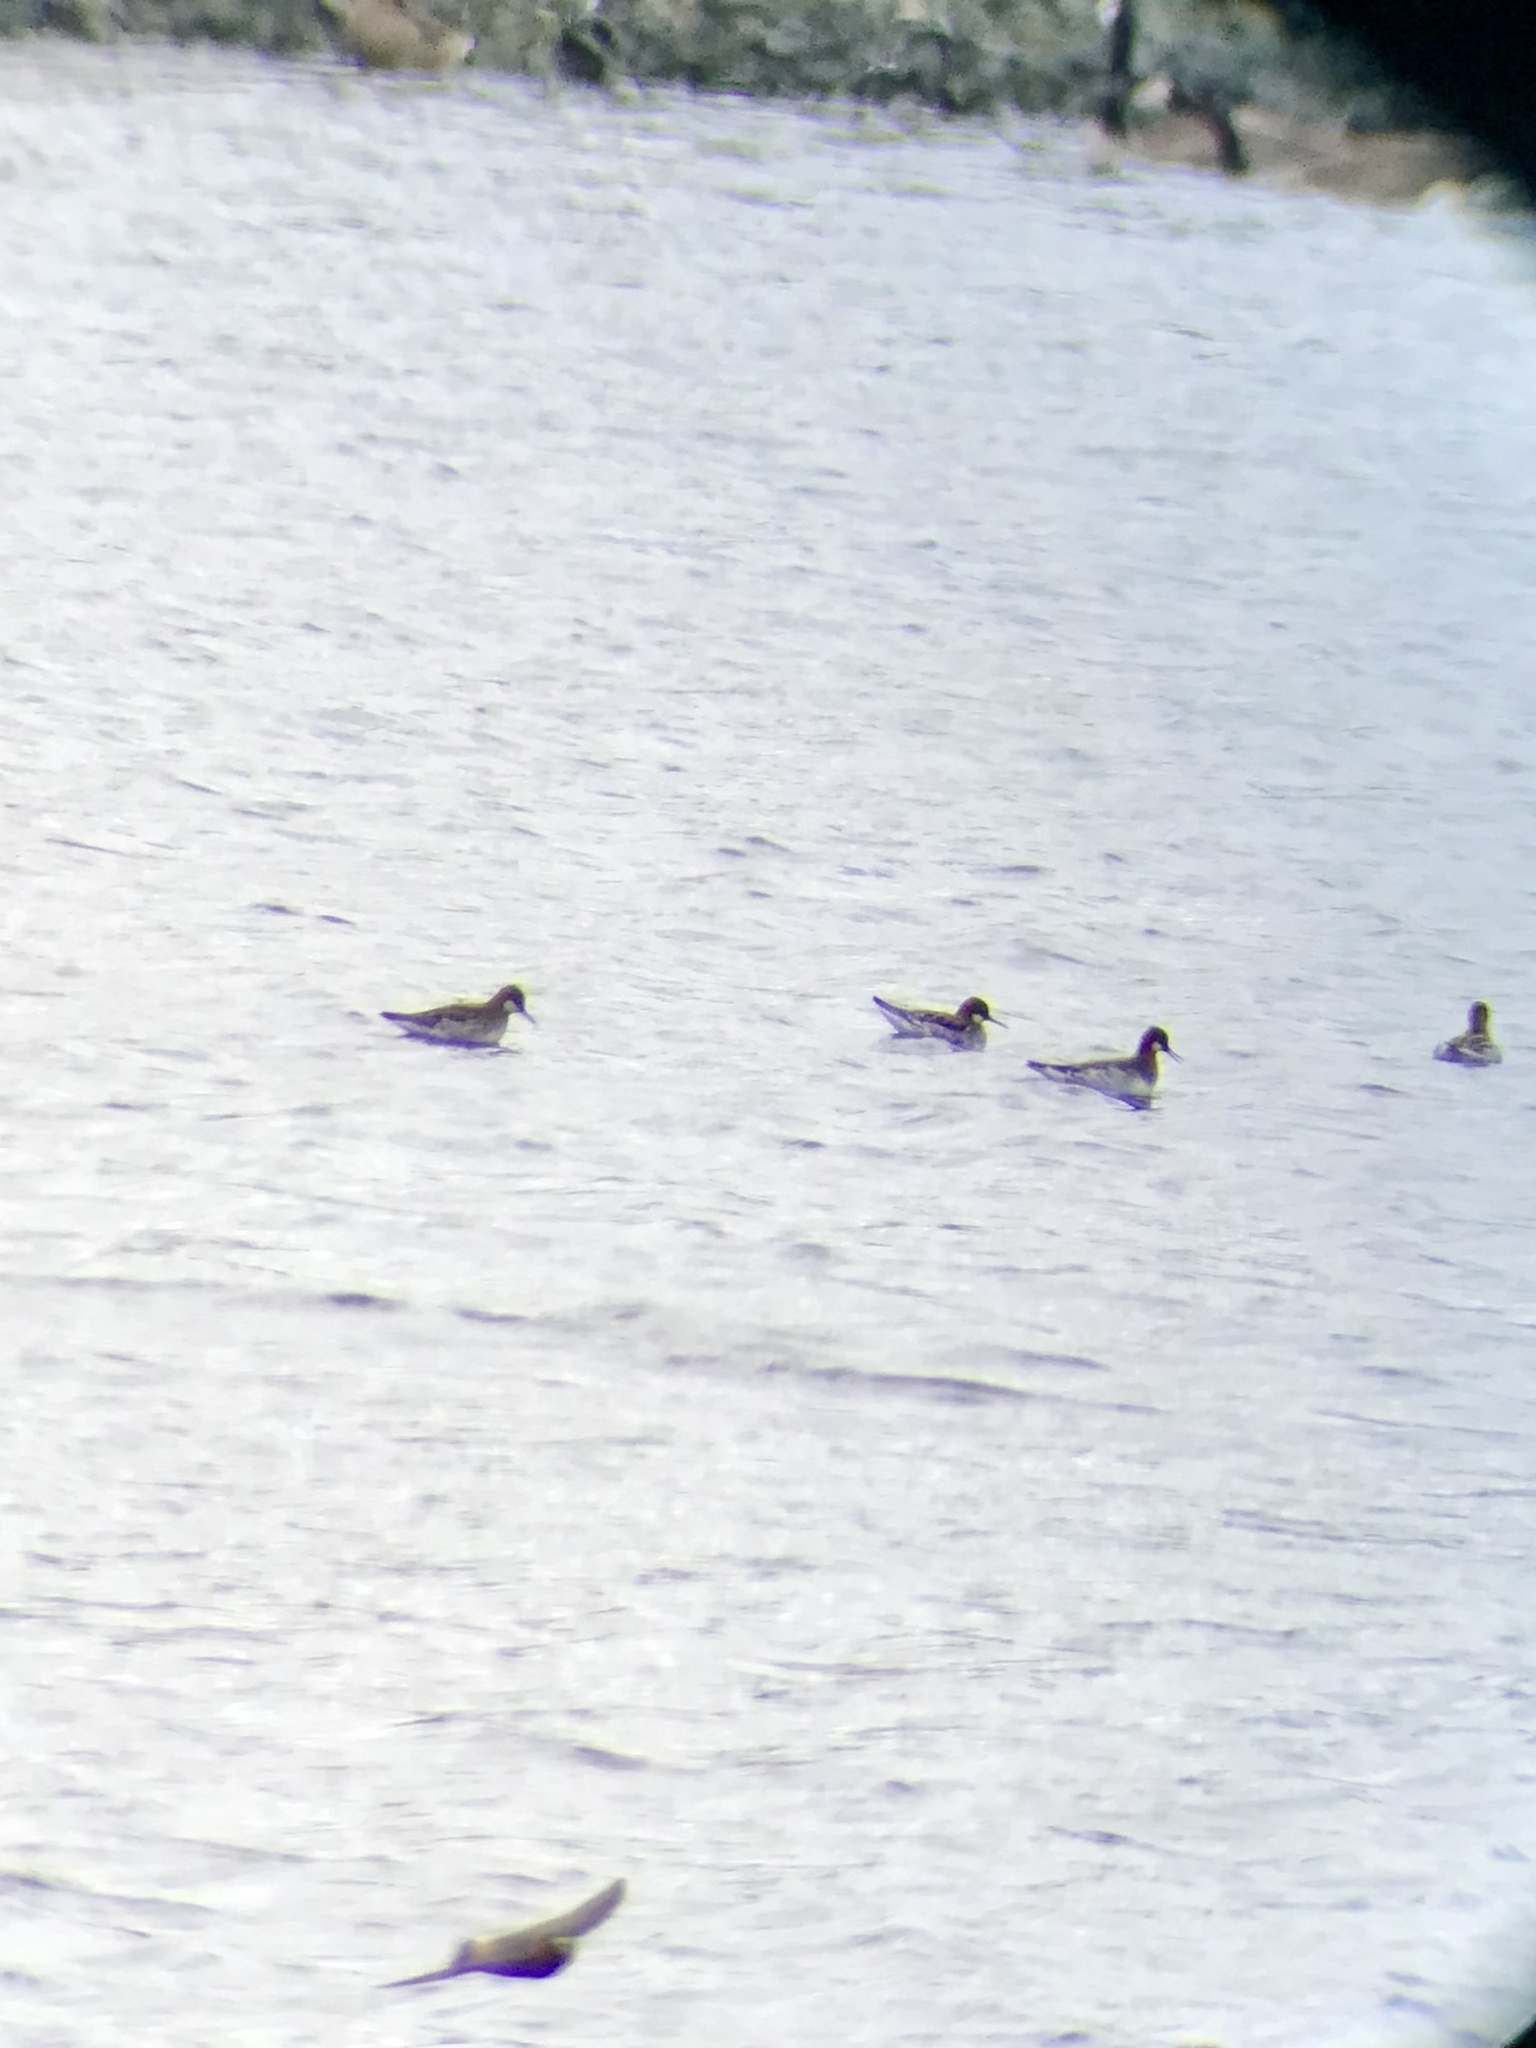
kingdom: Animalia
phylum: Chordata
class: Aves
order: Charadriiformes
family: Scolopacidae
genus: Phalaropus
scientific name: Phalaropus lobatus
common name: Red-necked phalarope
